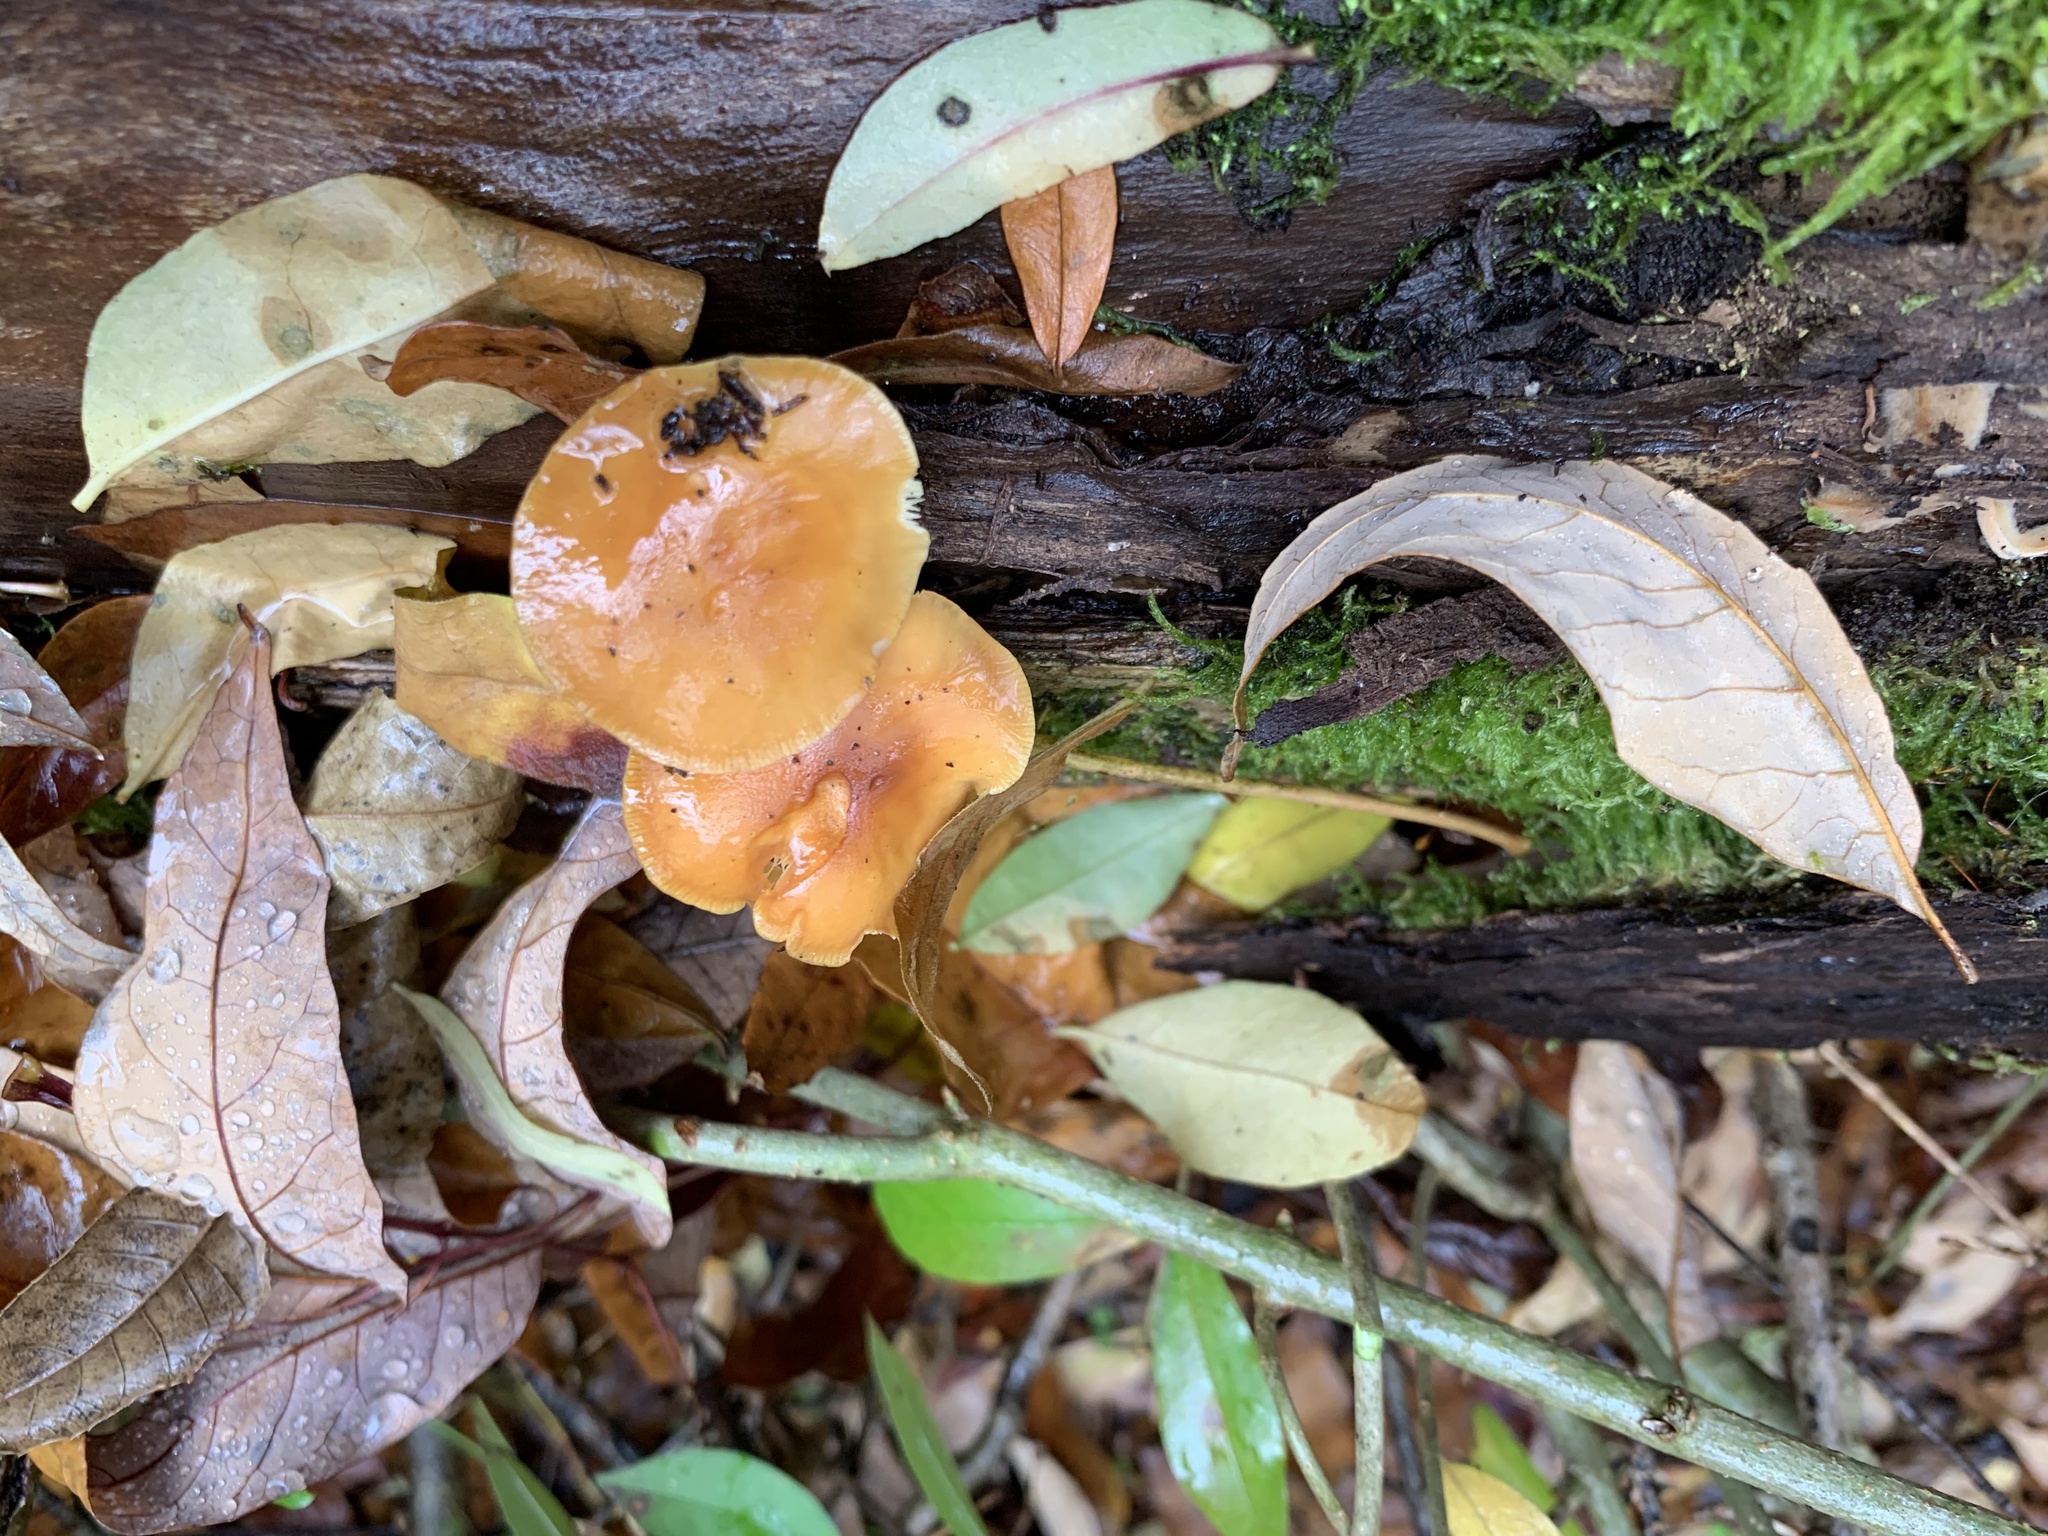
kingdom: Fungi
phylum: Basidiomycota
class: Agaricomycetes
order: Agaricales
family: Physalacriaceae
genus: Flammulina
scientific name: Flammulina velutipes
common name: Velvet shank
